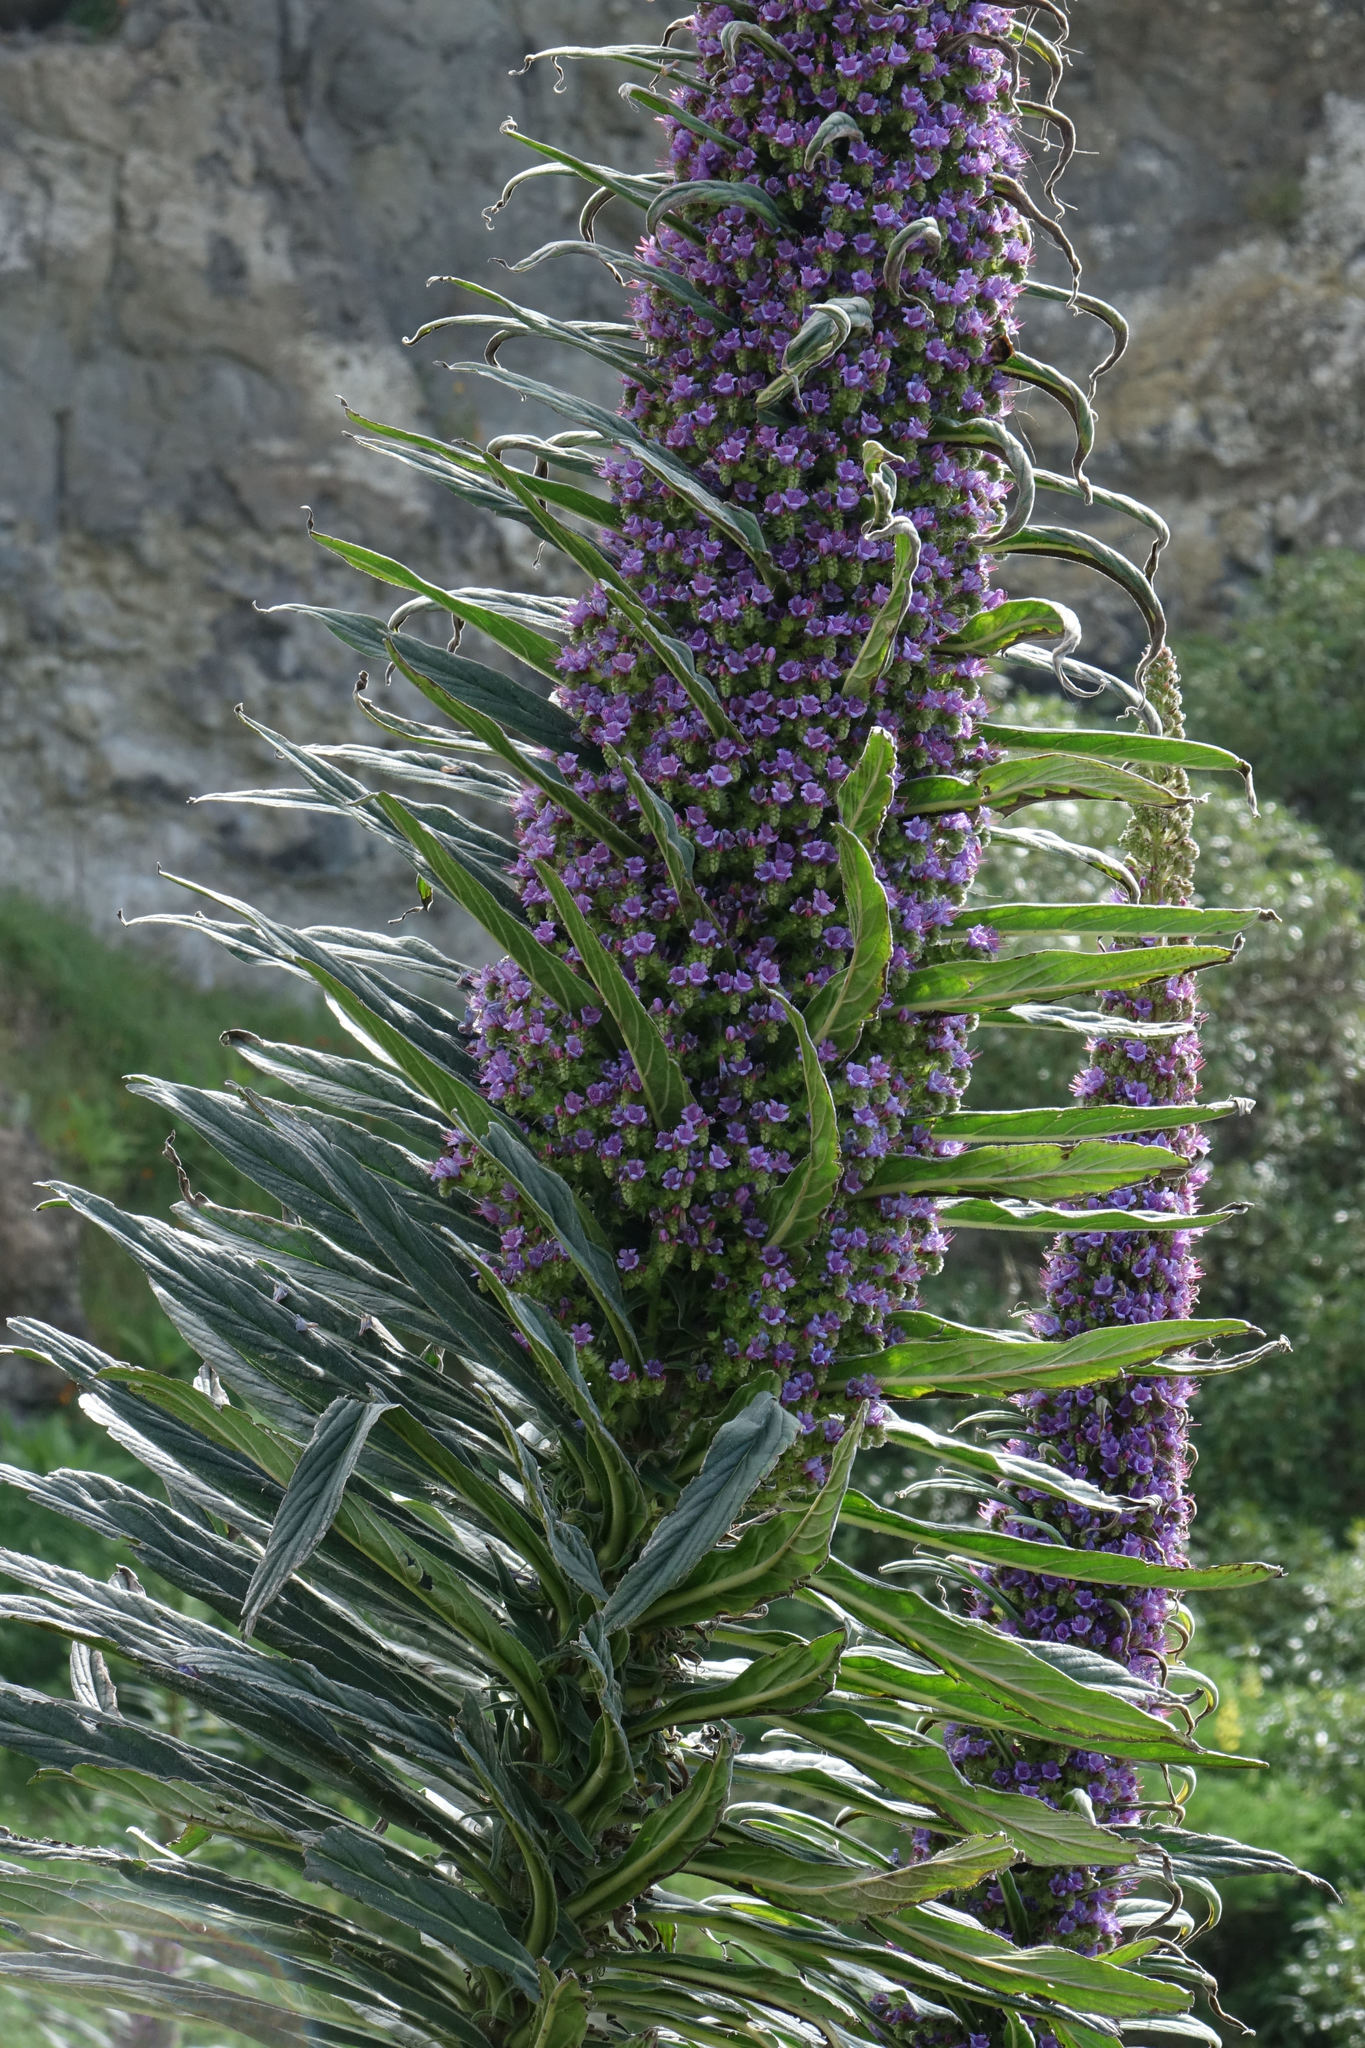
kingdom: Plantae
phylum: Tracheophyta
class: Magnoliopsida
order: Boraginales
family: Boraginaceae
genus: Echium
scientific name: Echium pininana
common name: Giant viper's-bugloss
